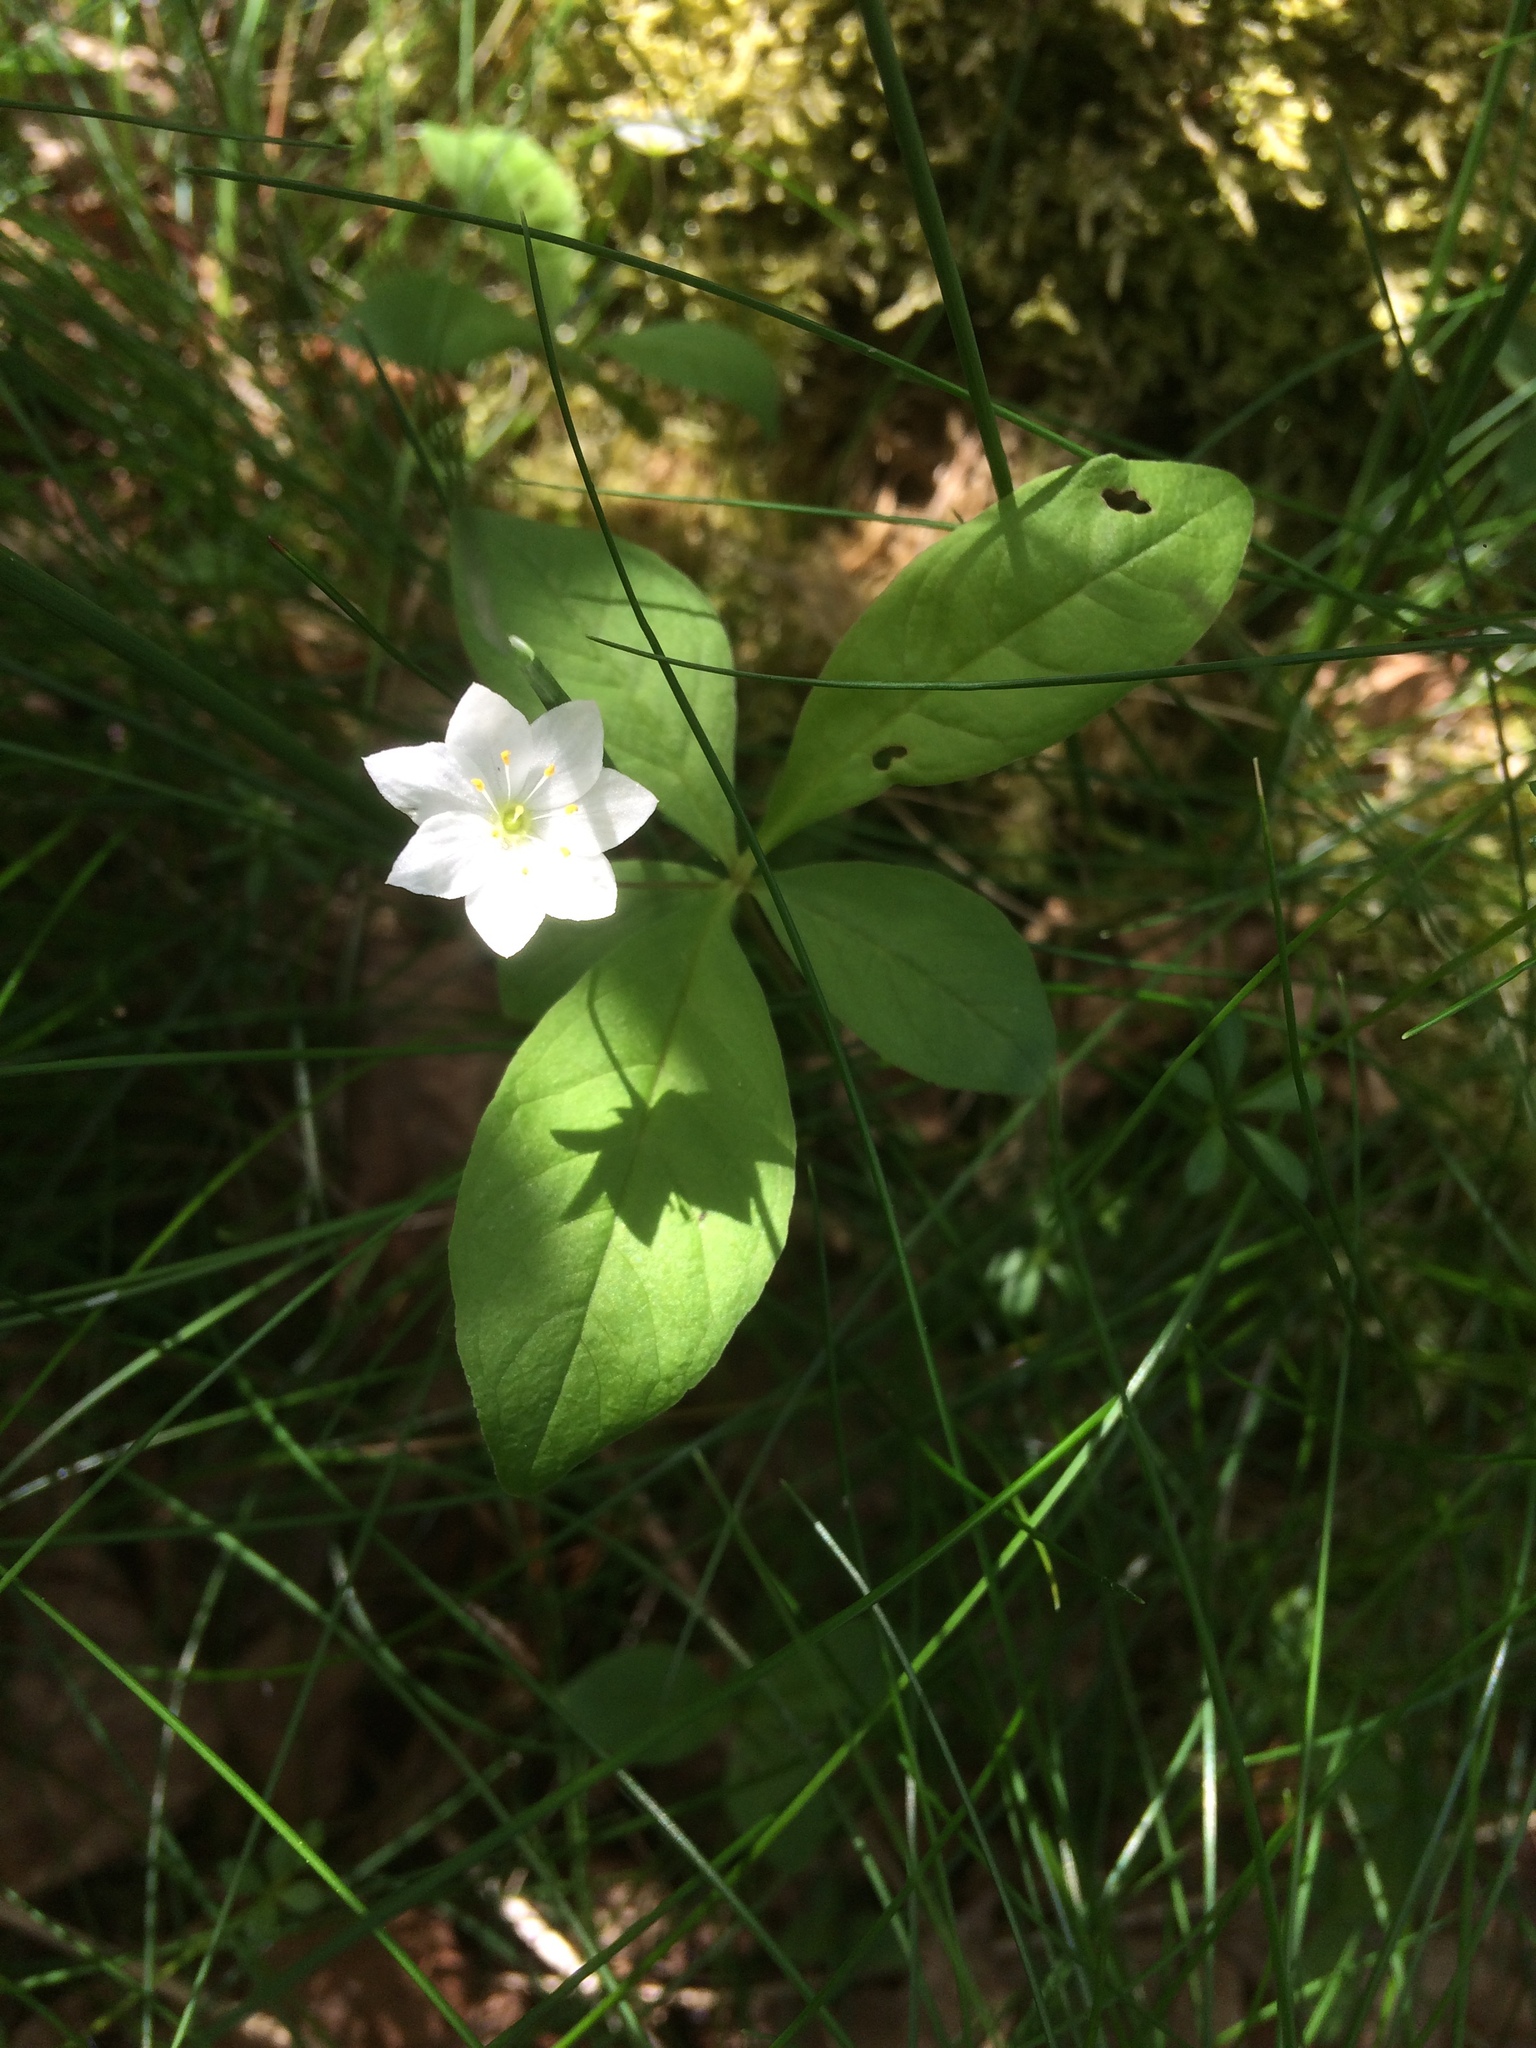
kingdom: Plantae
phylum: Tracheophyta
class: Magnoliopsida
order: Ericales
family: Primulaceae
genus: Lysimachia
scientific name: Lysimachia europaea
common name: Arctic starflower
